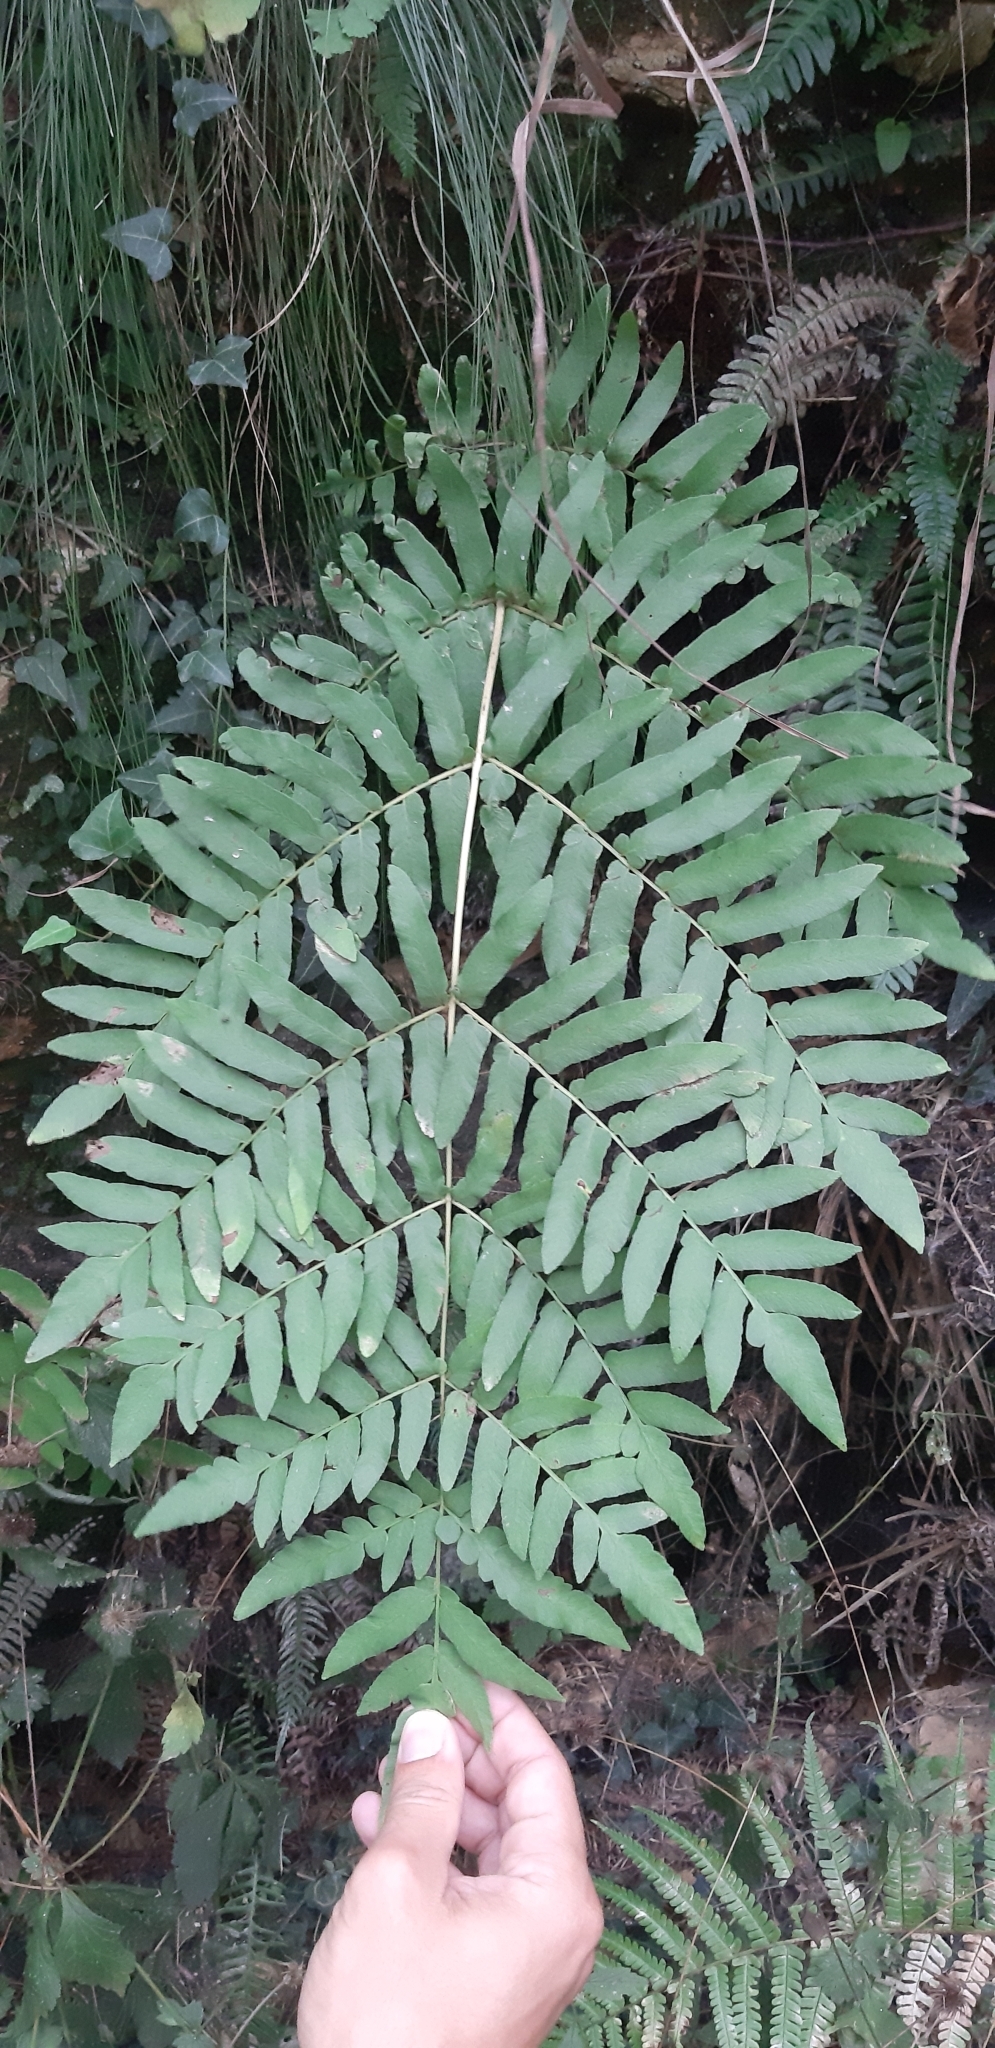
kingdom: Plantae
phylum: Tracheophyta
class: Polypodiopsida
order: Osmundales
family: Osmundaceae
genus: Osmunda
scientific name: Osmunda regalis
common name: Royal fern
